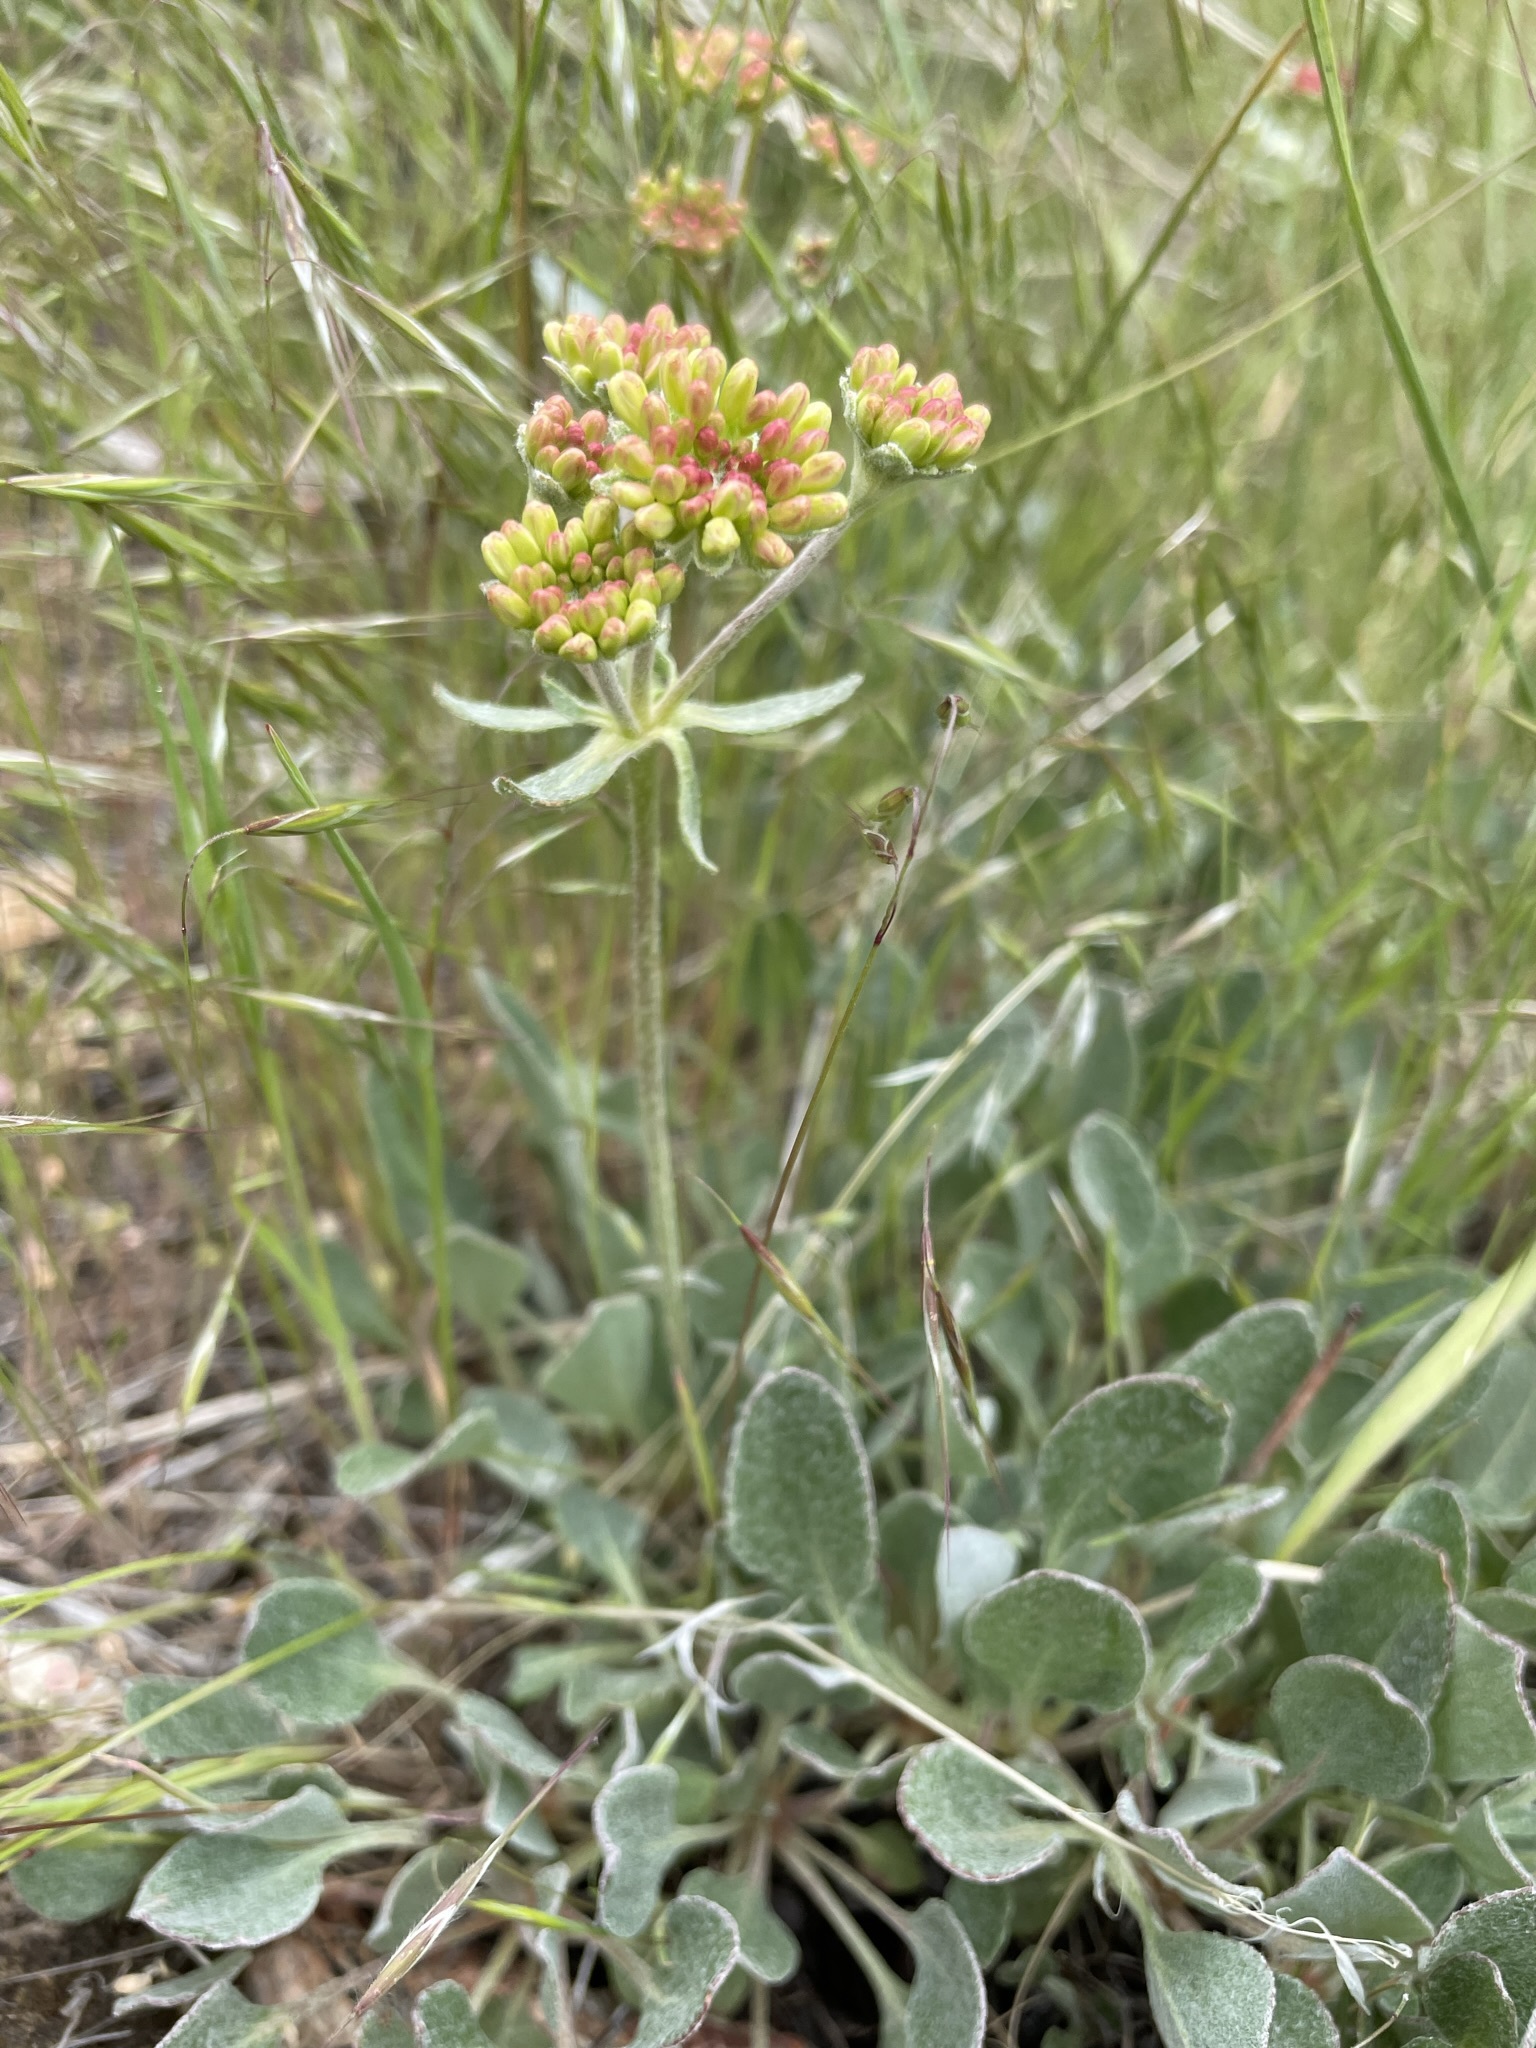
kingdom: Plantae
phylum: Tracheophyta
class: Magnoliopsida
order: Caryophyllales
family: Polygonaceae
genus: Eriogonum
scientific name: Eriogonum umbellatum
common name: Sulfur-buckwheat
